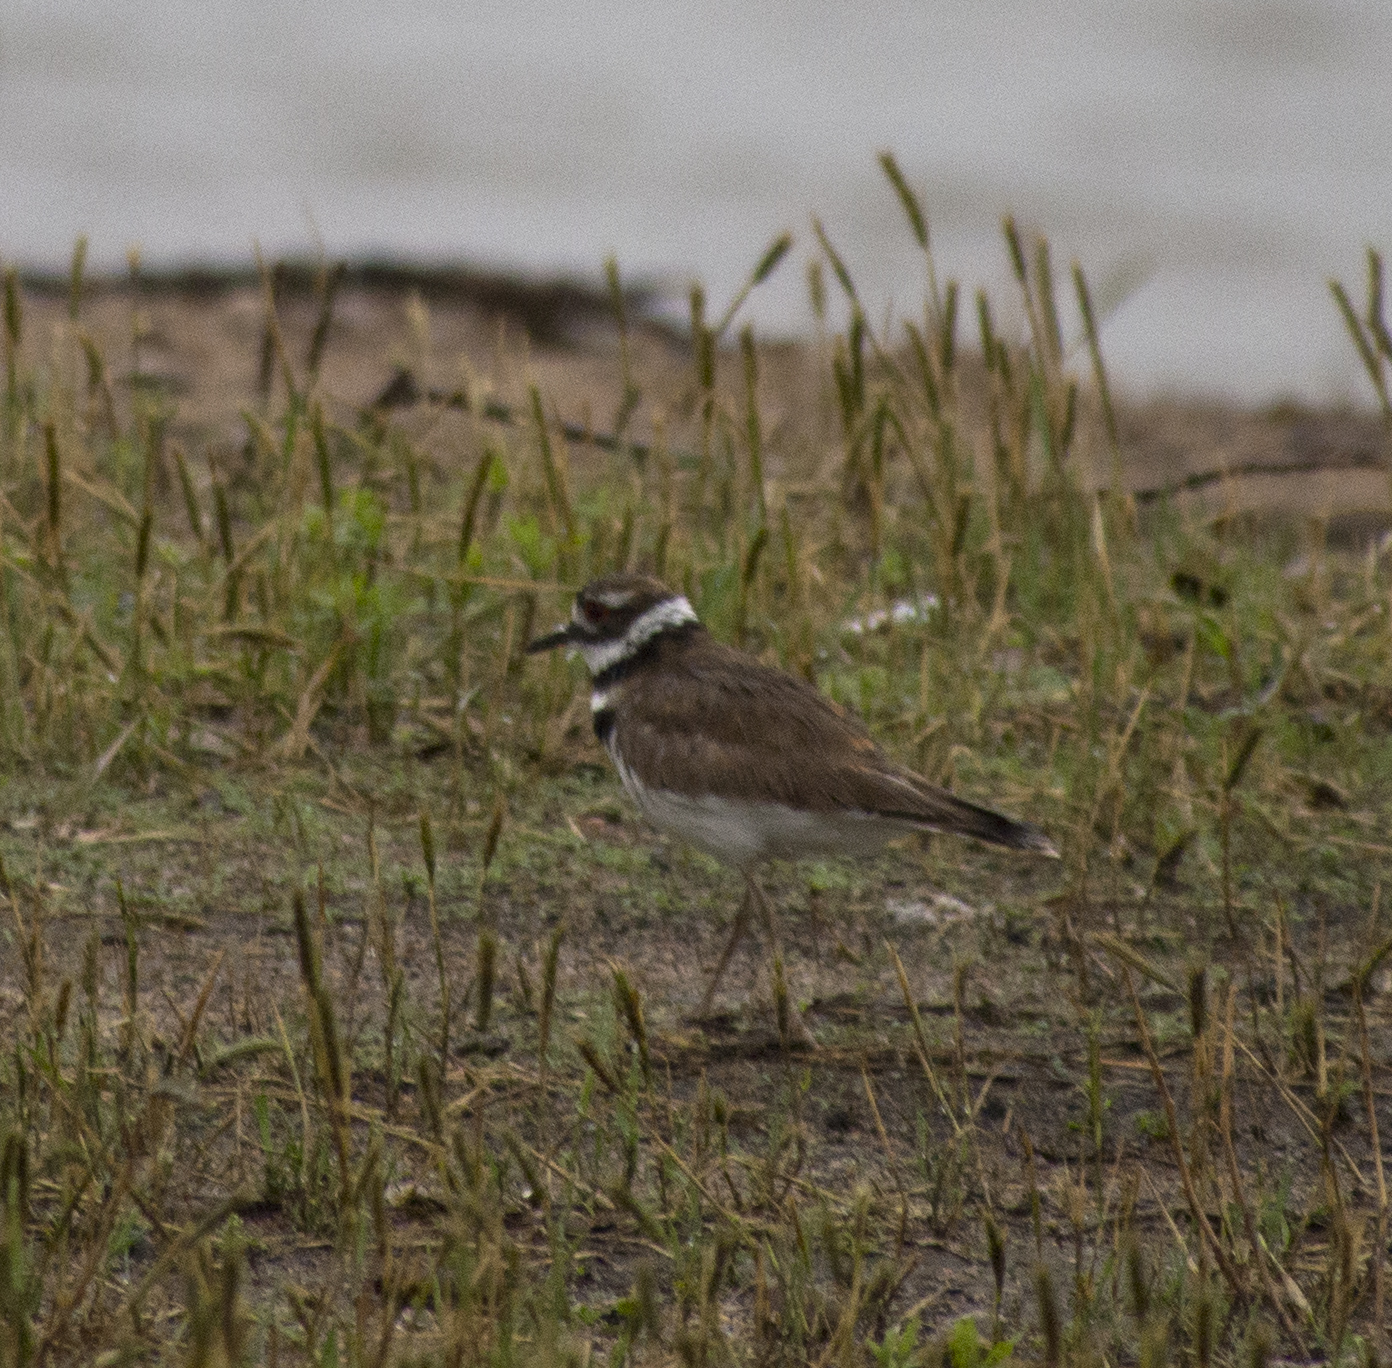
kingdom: Animalia
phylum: Chordata
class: Aves
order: Charadriiformes
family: Charadriidae
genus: Charadrius
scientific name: Charadrius vociferus
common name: Killdeer
